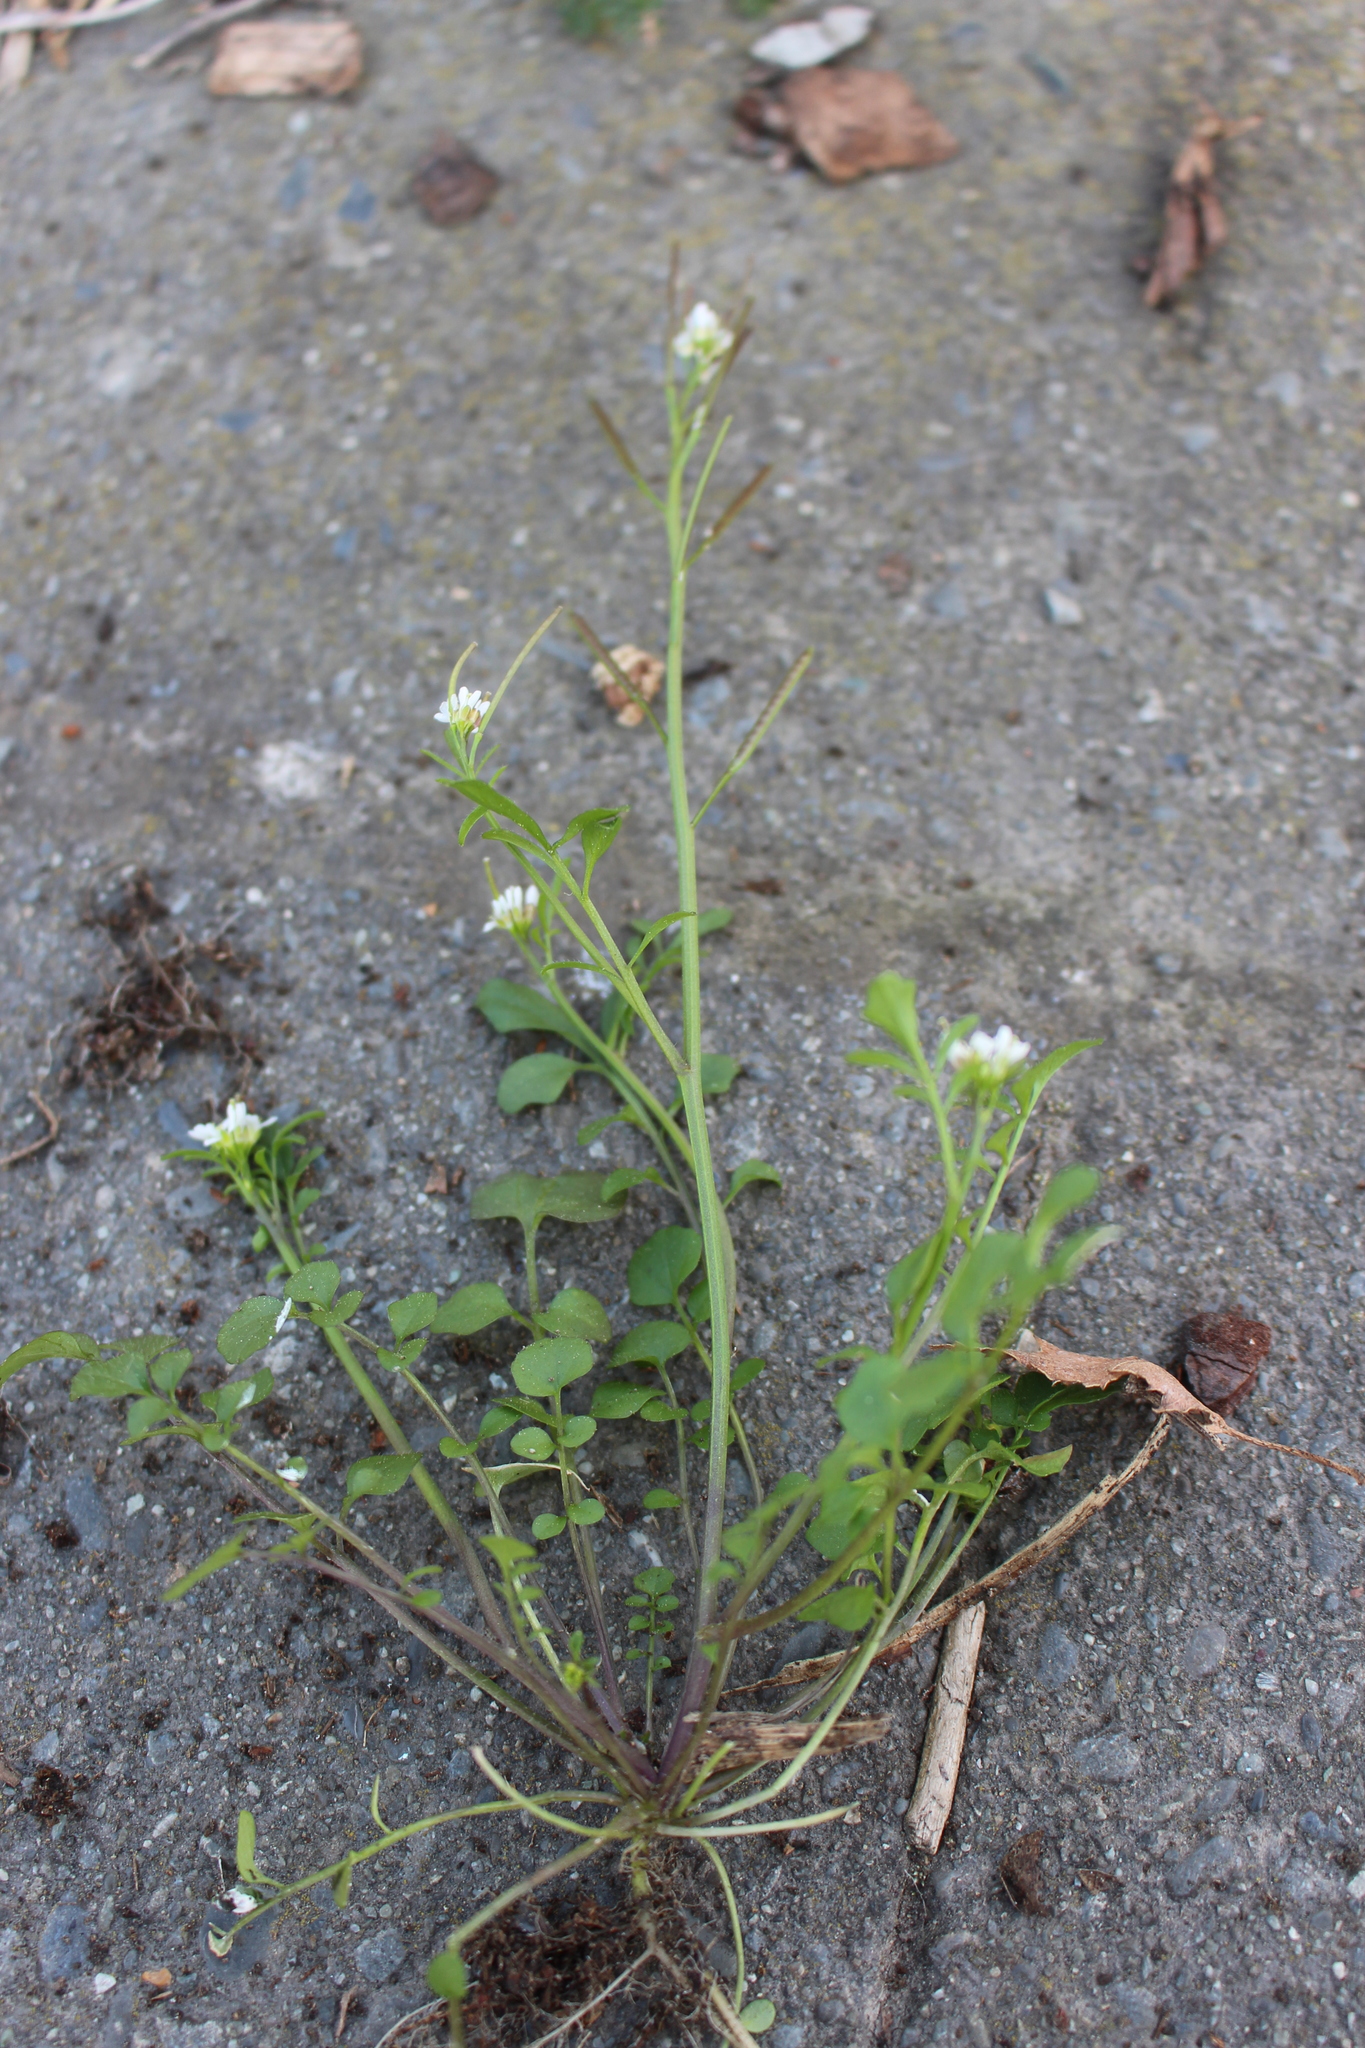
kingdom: Plantae
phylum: Tracheophyta
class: Magnoliopsida
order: Brassicales
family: Brassicaceae
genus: Cardamine
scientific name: Cardamine hirsuta
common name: Hairy bittercress
